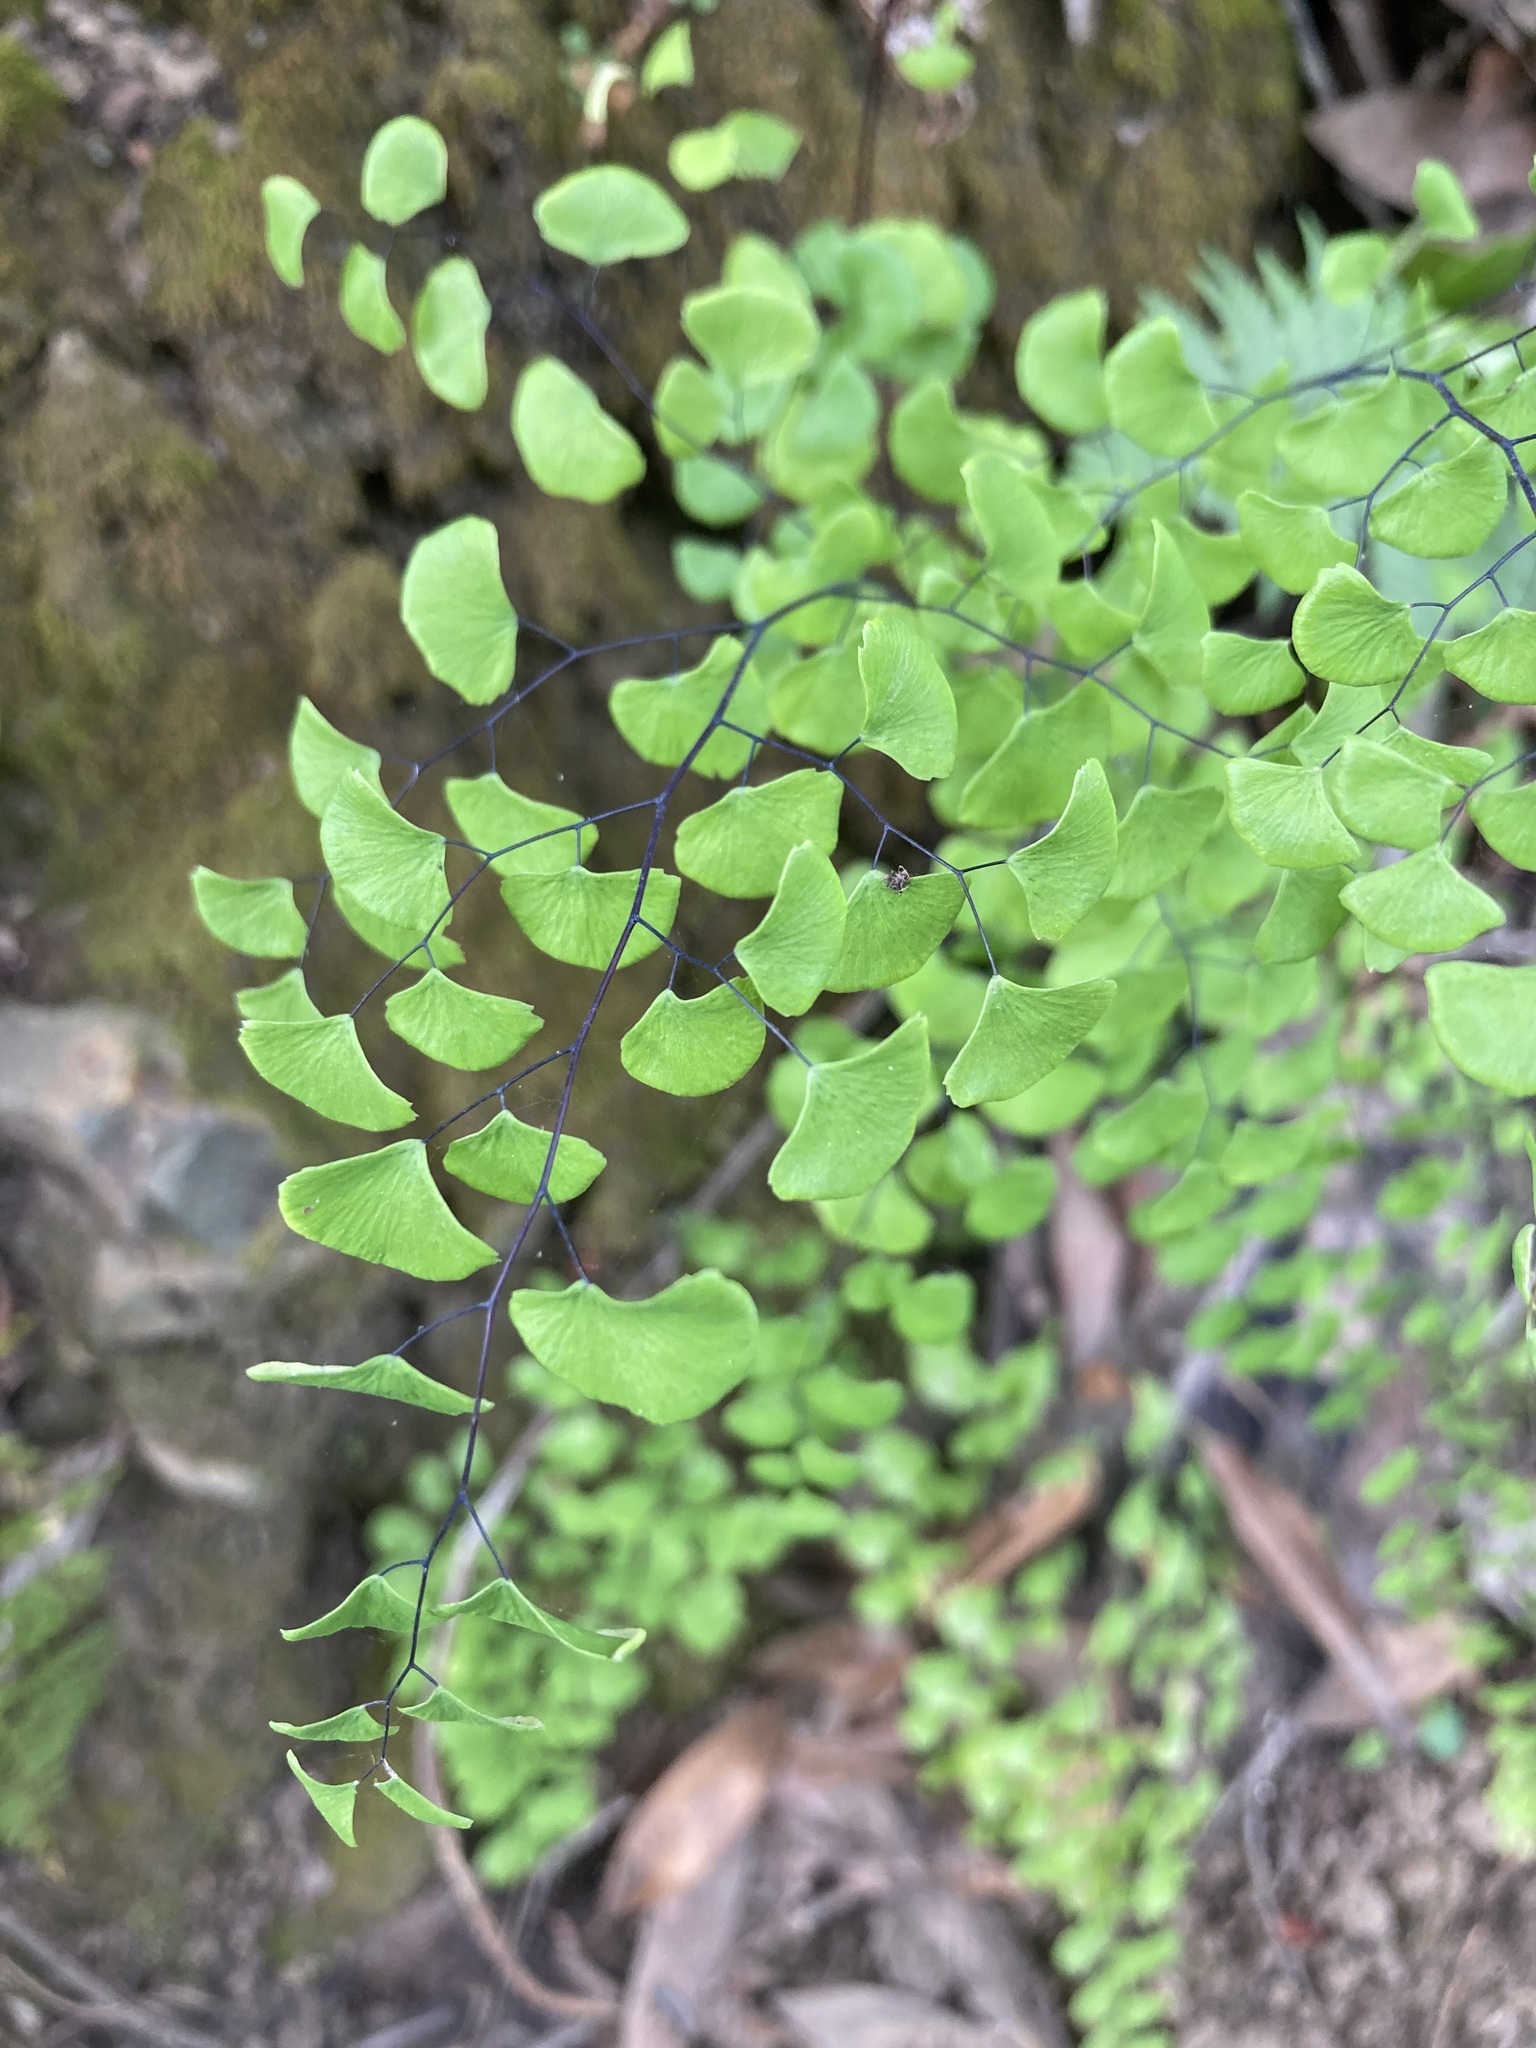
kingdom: Plantae
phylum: Tracheophyta
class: Polypodiopsida
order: Polypodiales
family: Pteridaceae
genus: Adiantum
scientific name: Adiantum jordanii
